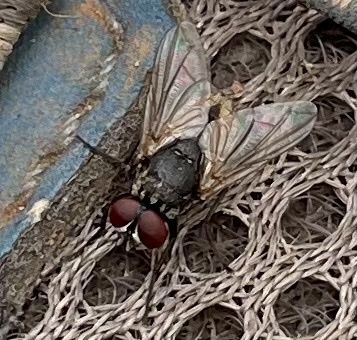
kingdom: Animalia
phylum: Arthropoda
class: Insecta
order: Diptera
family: Muscidae
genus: Musca
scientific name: Musca domestica
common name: House fly
